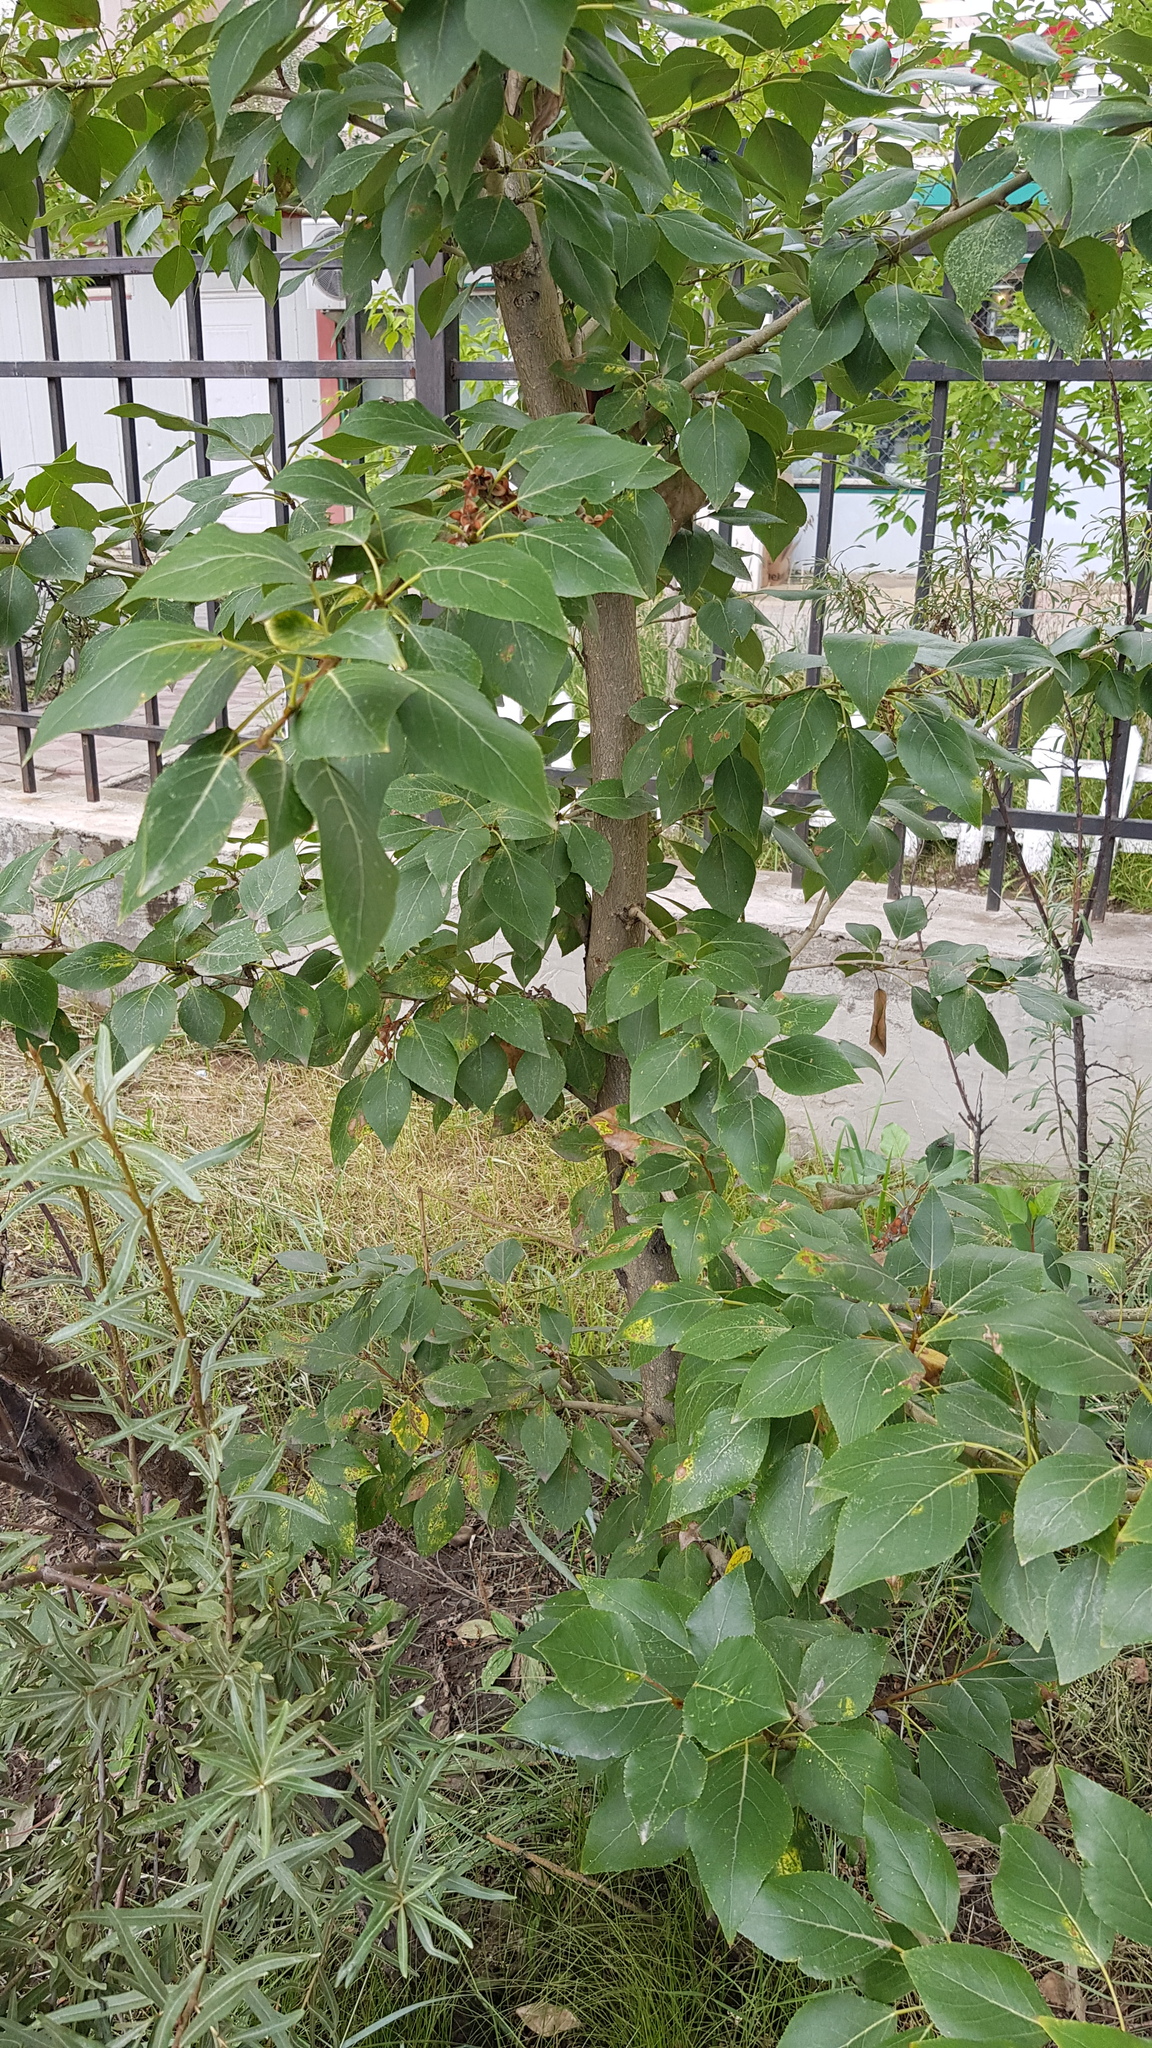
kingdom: Plantae
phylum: Tracheophyta
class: Magnoliopsida
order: Malpighiales
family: Salicaceae
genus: Populus
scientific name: Populus laurifolia
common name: Laurel-leaf poplar
